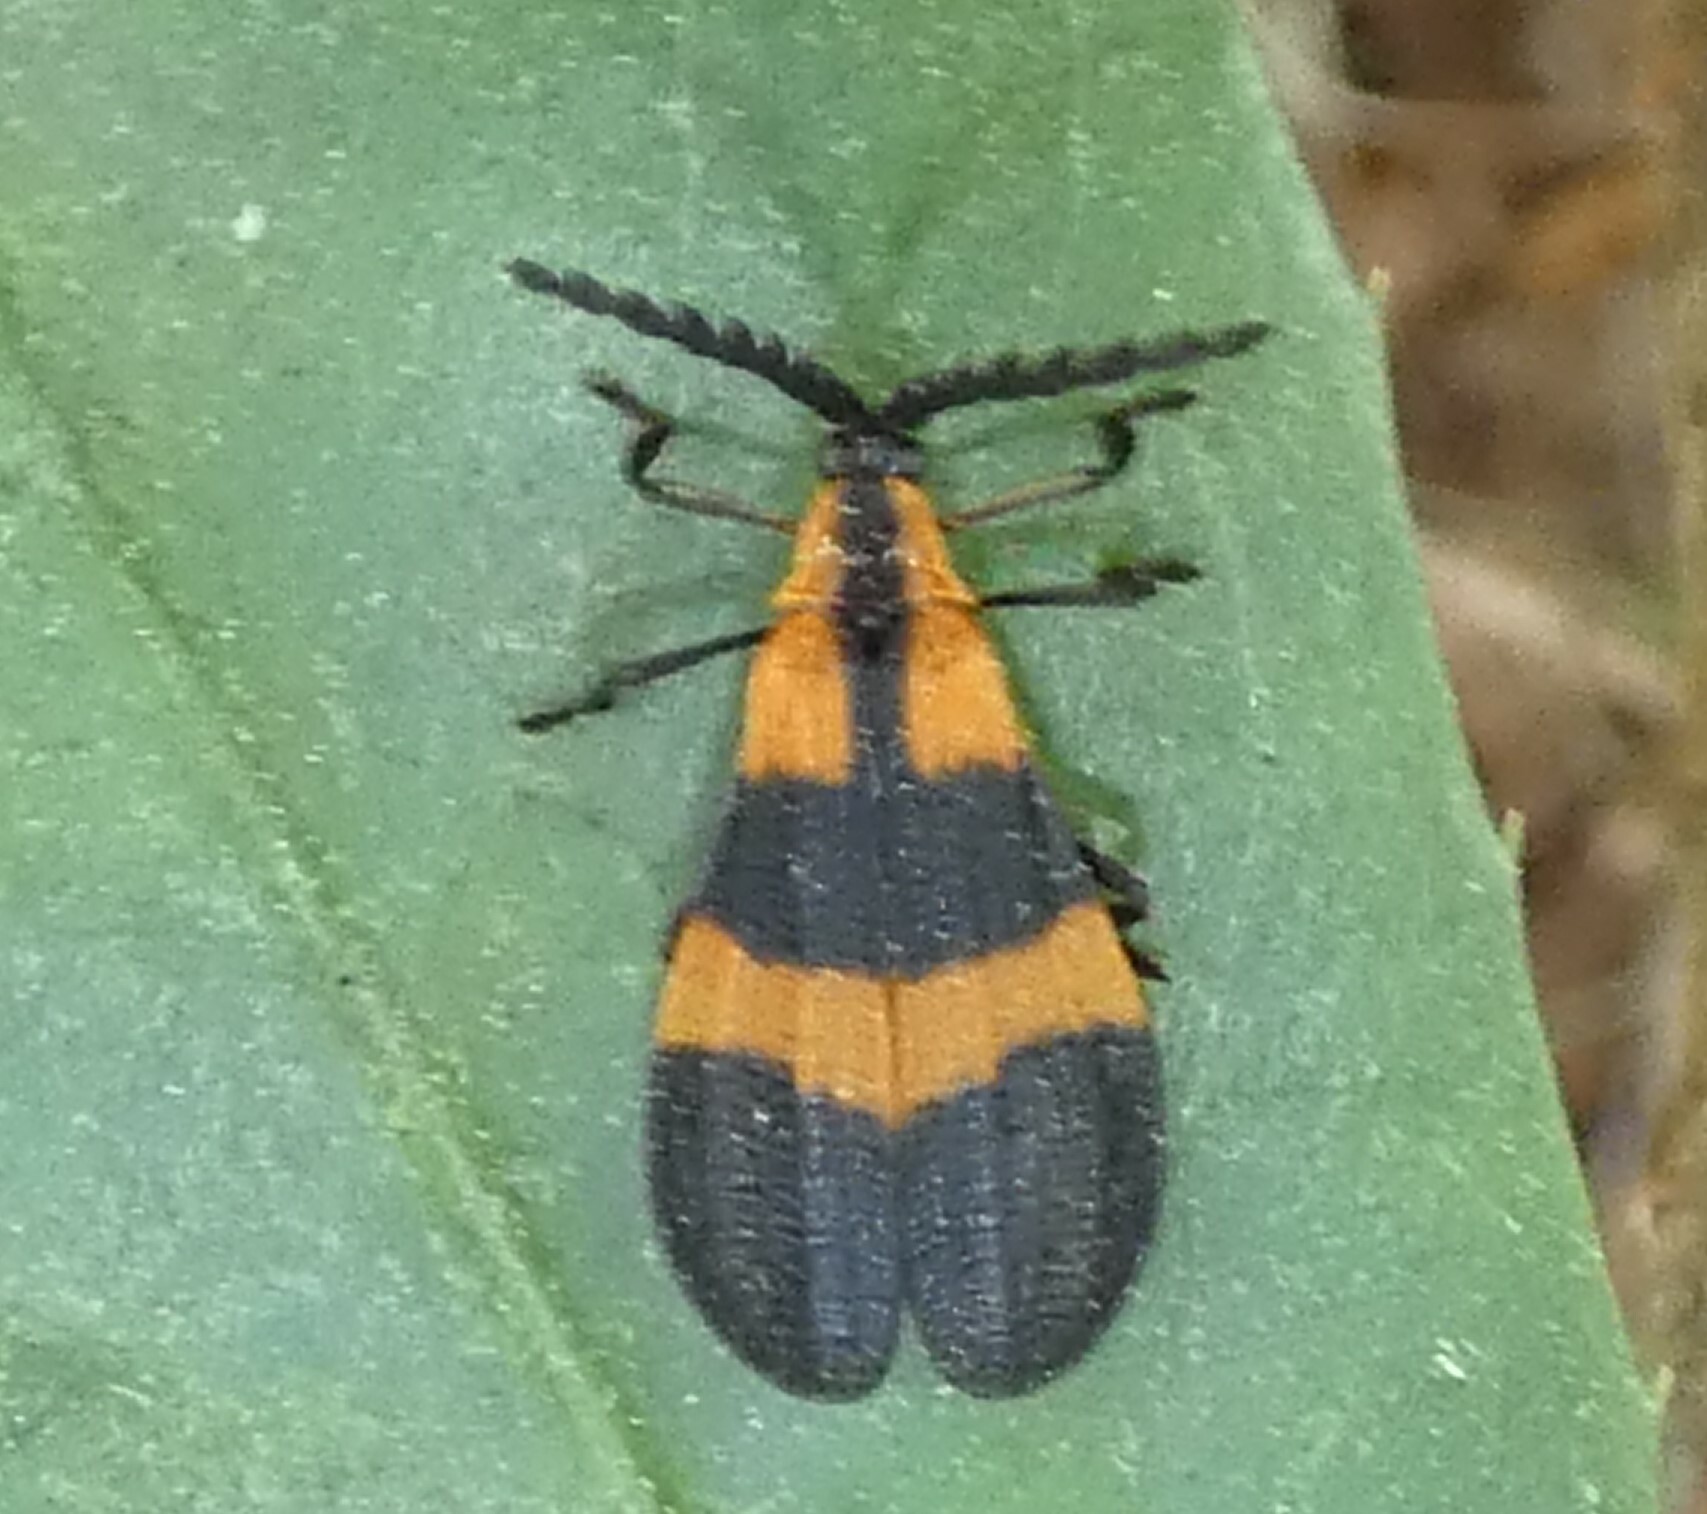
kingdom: Animalia
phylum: Arthropoda
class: Insecta
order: Coleoptera
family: Lycidae
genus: Calopteron
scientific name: Calopteron discrepans
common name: Banded net-winged beetle
